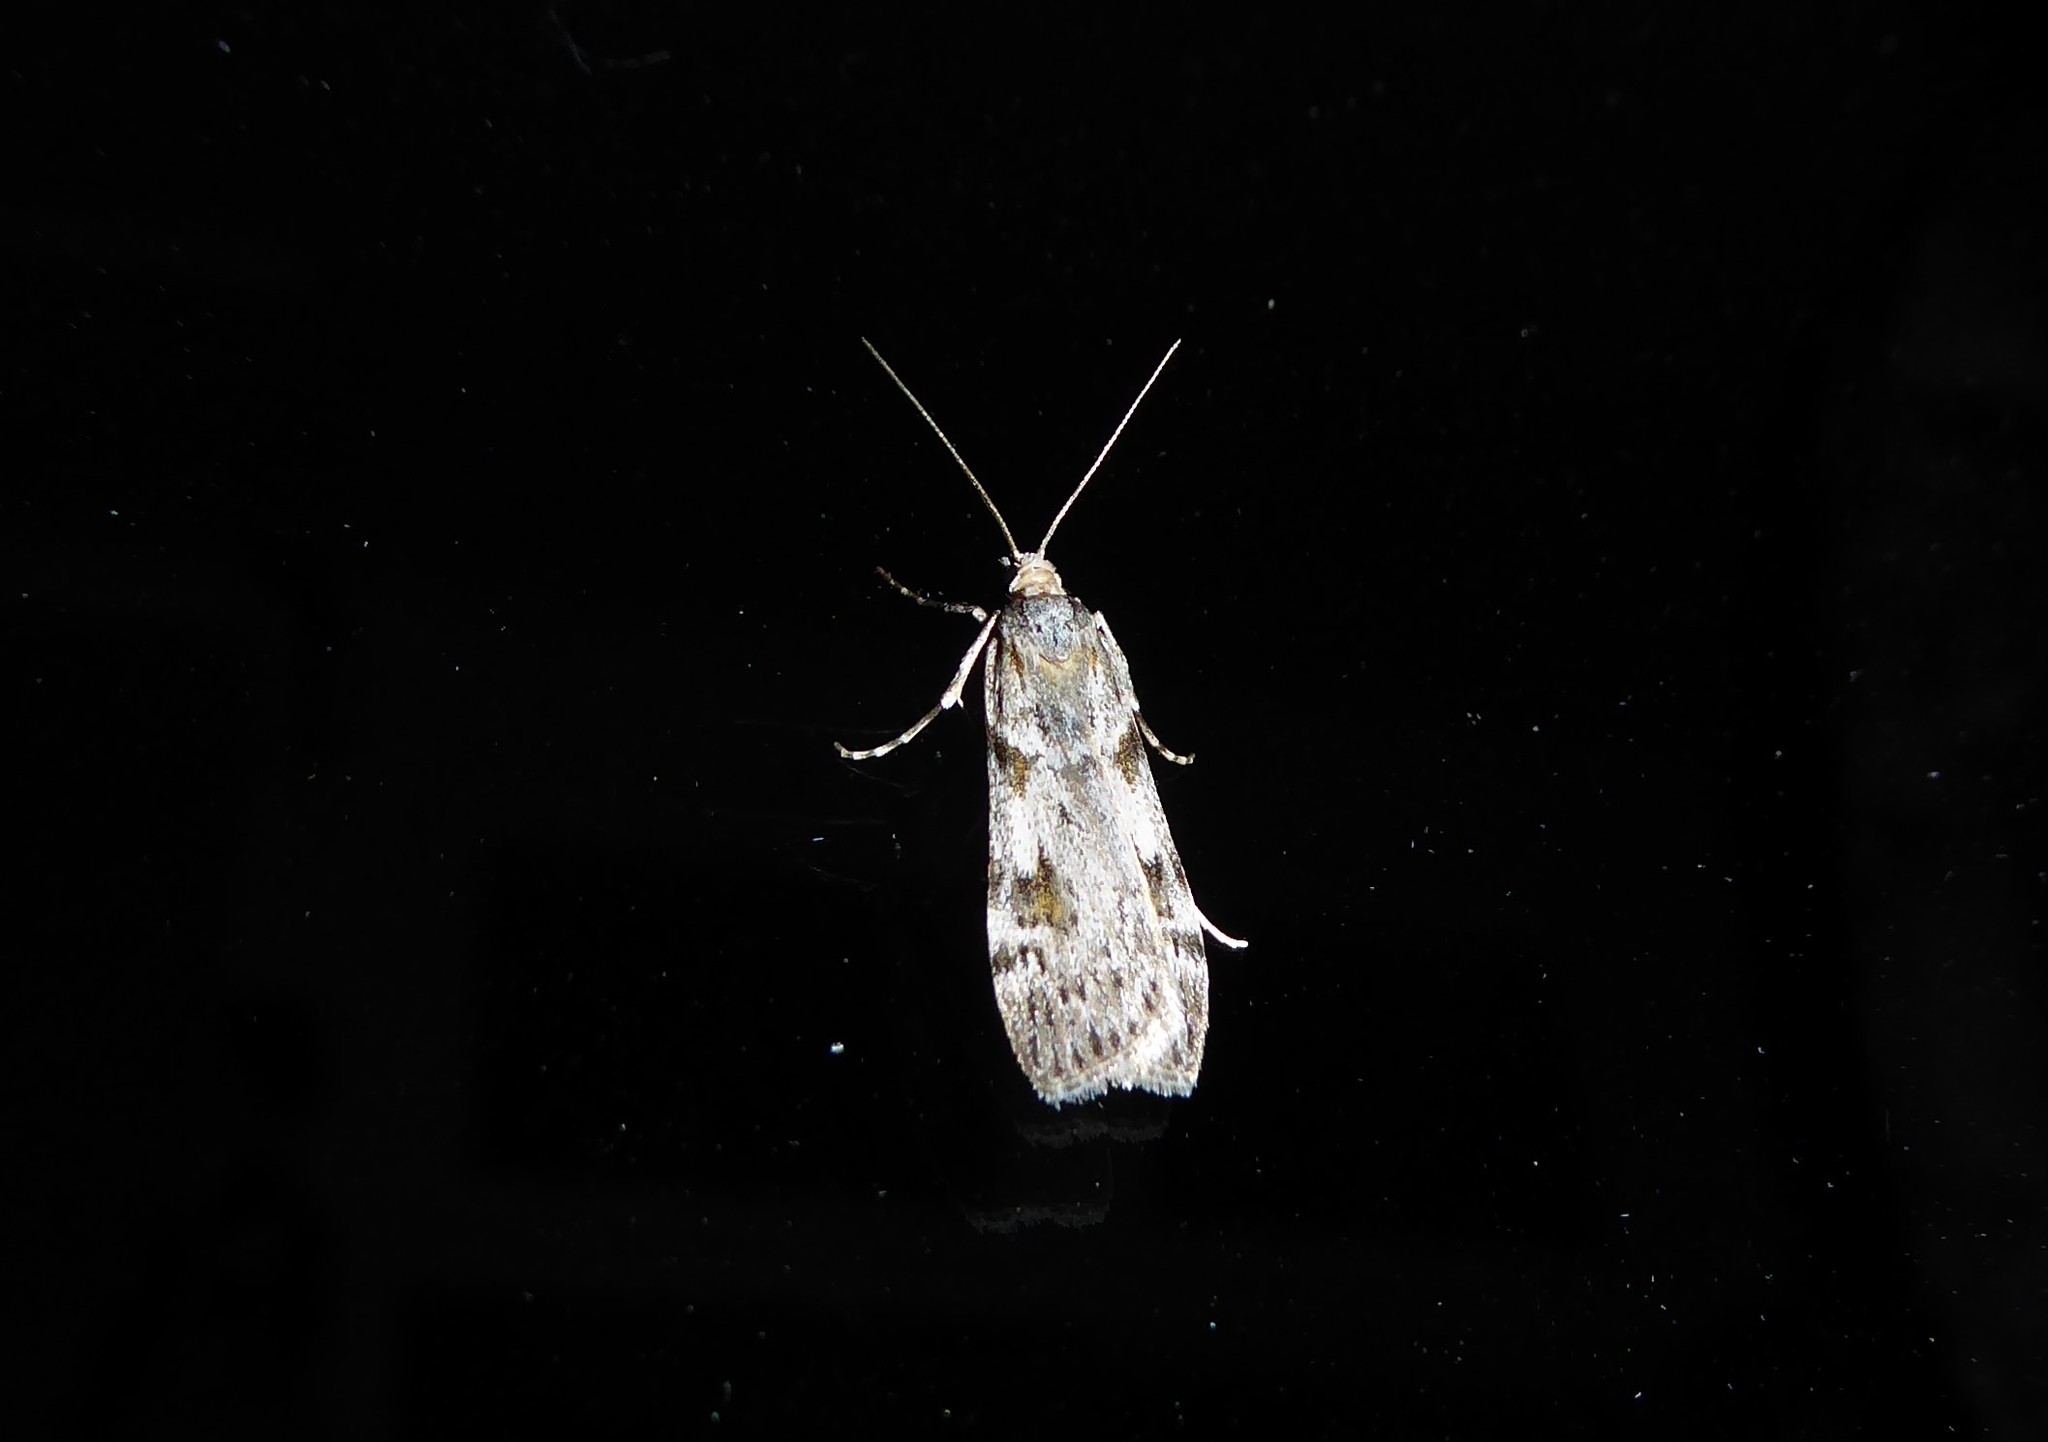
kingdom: Animalia
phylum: Arthropoda
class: Insecta
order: Lepidoptera
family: Crambidae
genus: Scoparia
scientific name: Scoparia halopis
